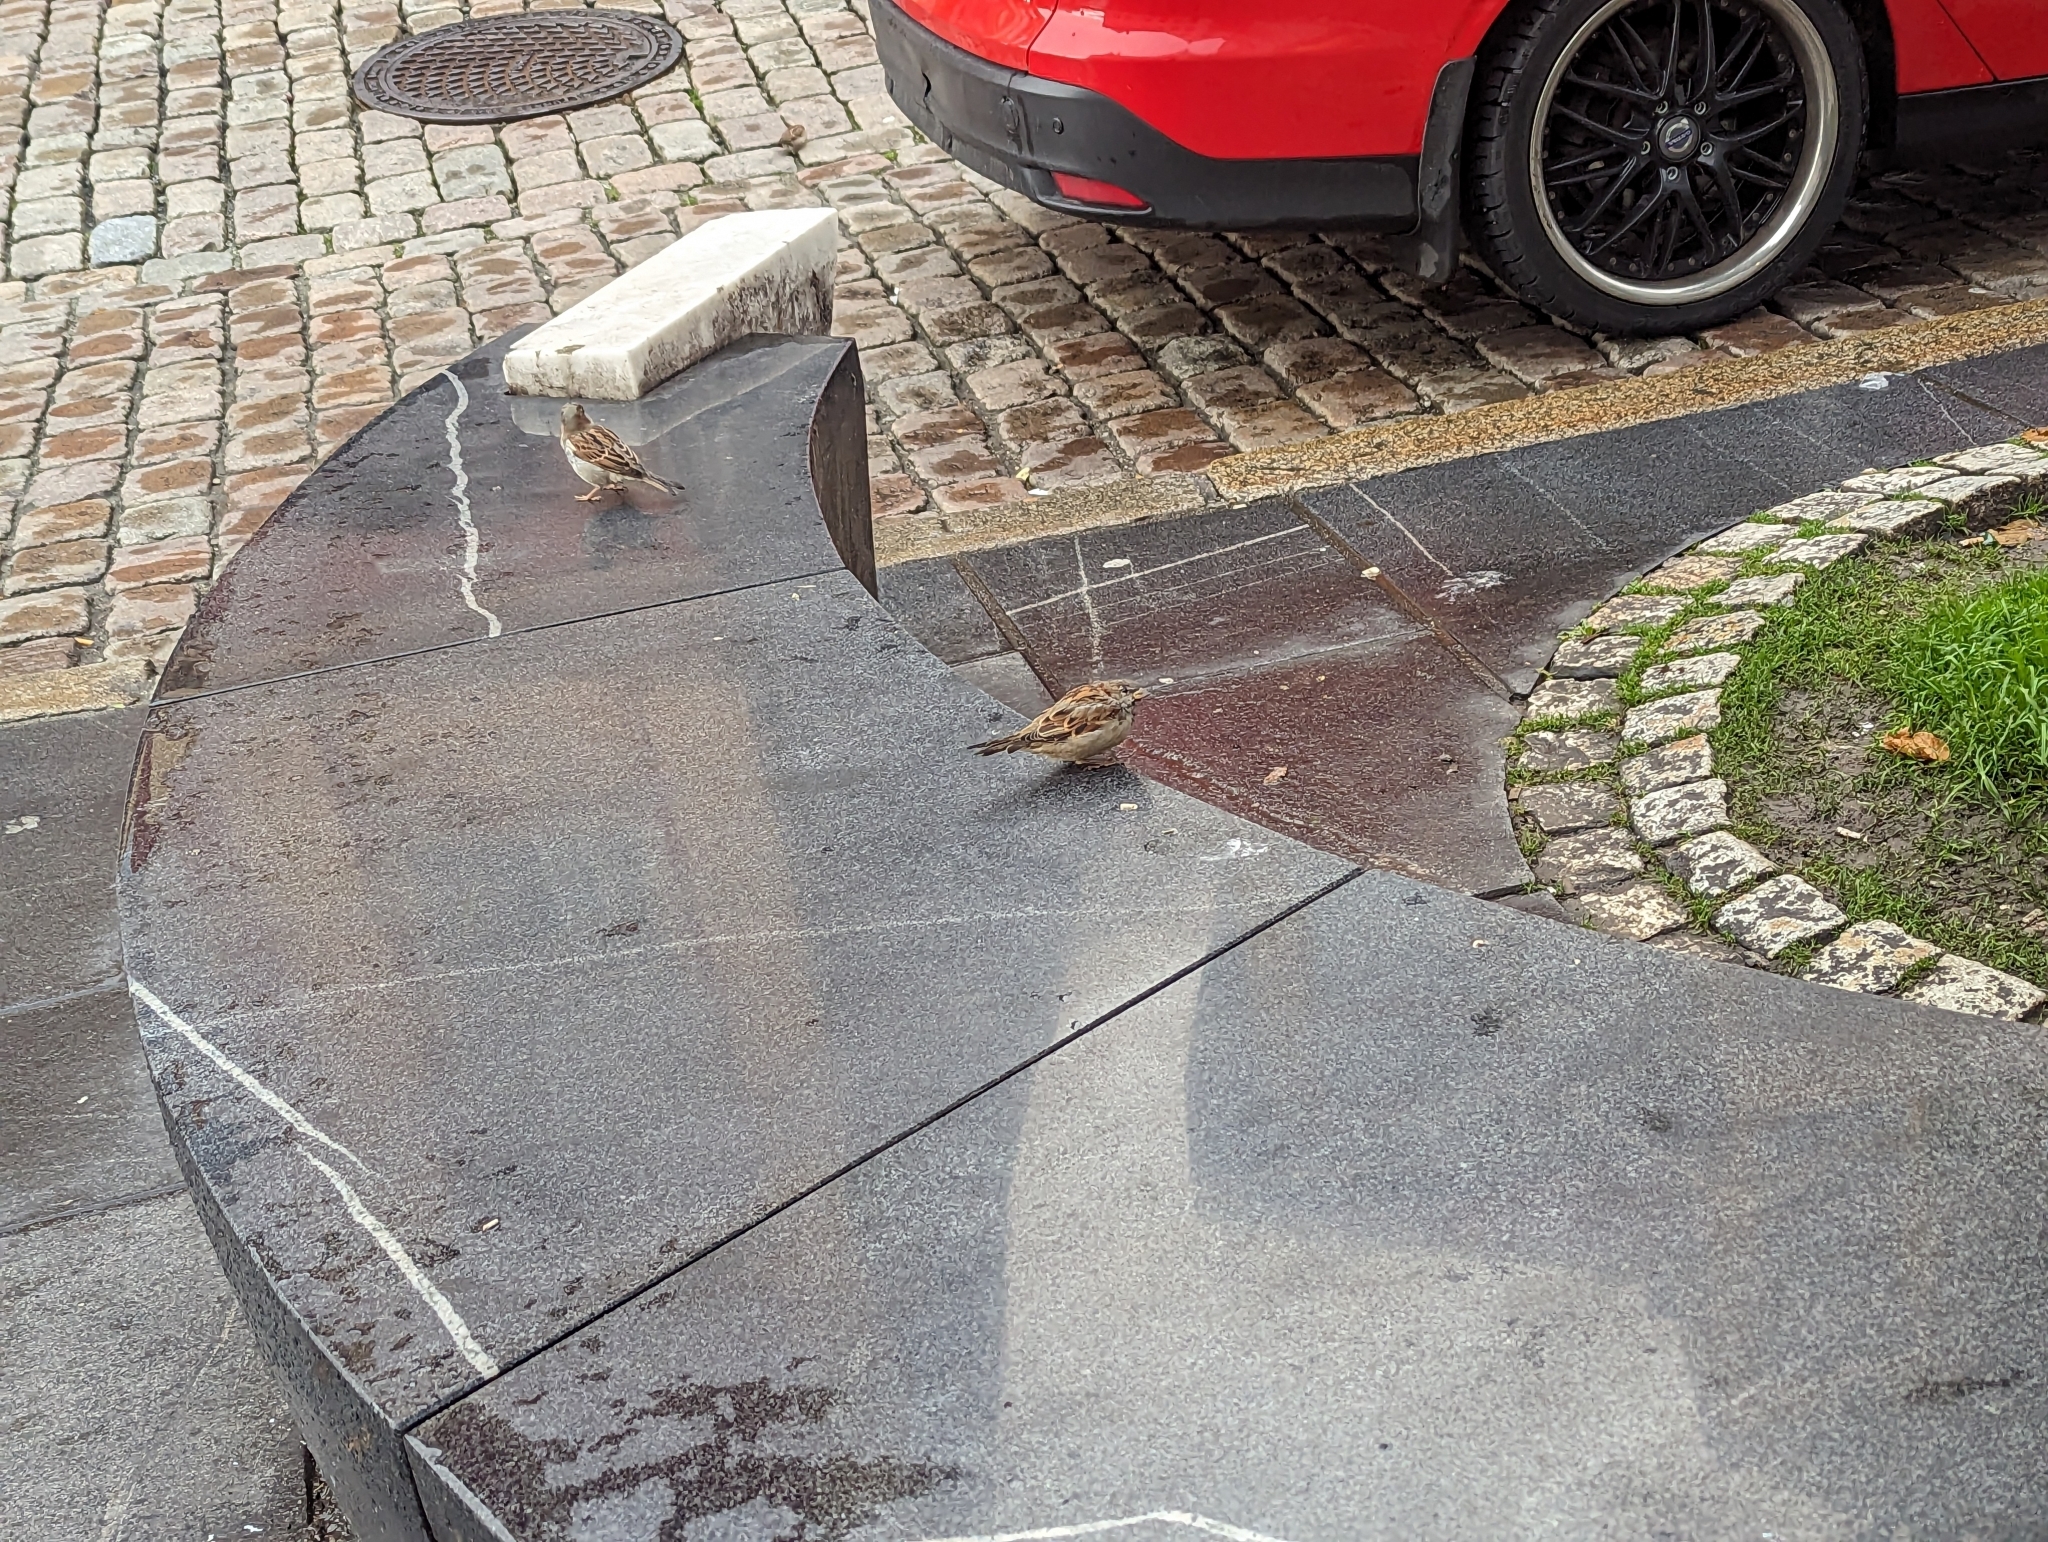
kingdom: Animalia
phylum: Chordata
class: Aves
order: Passeriformes
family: Passeridae
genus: Passer
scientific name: Passer domesticus
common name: House sparrow
